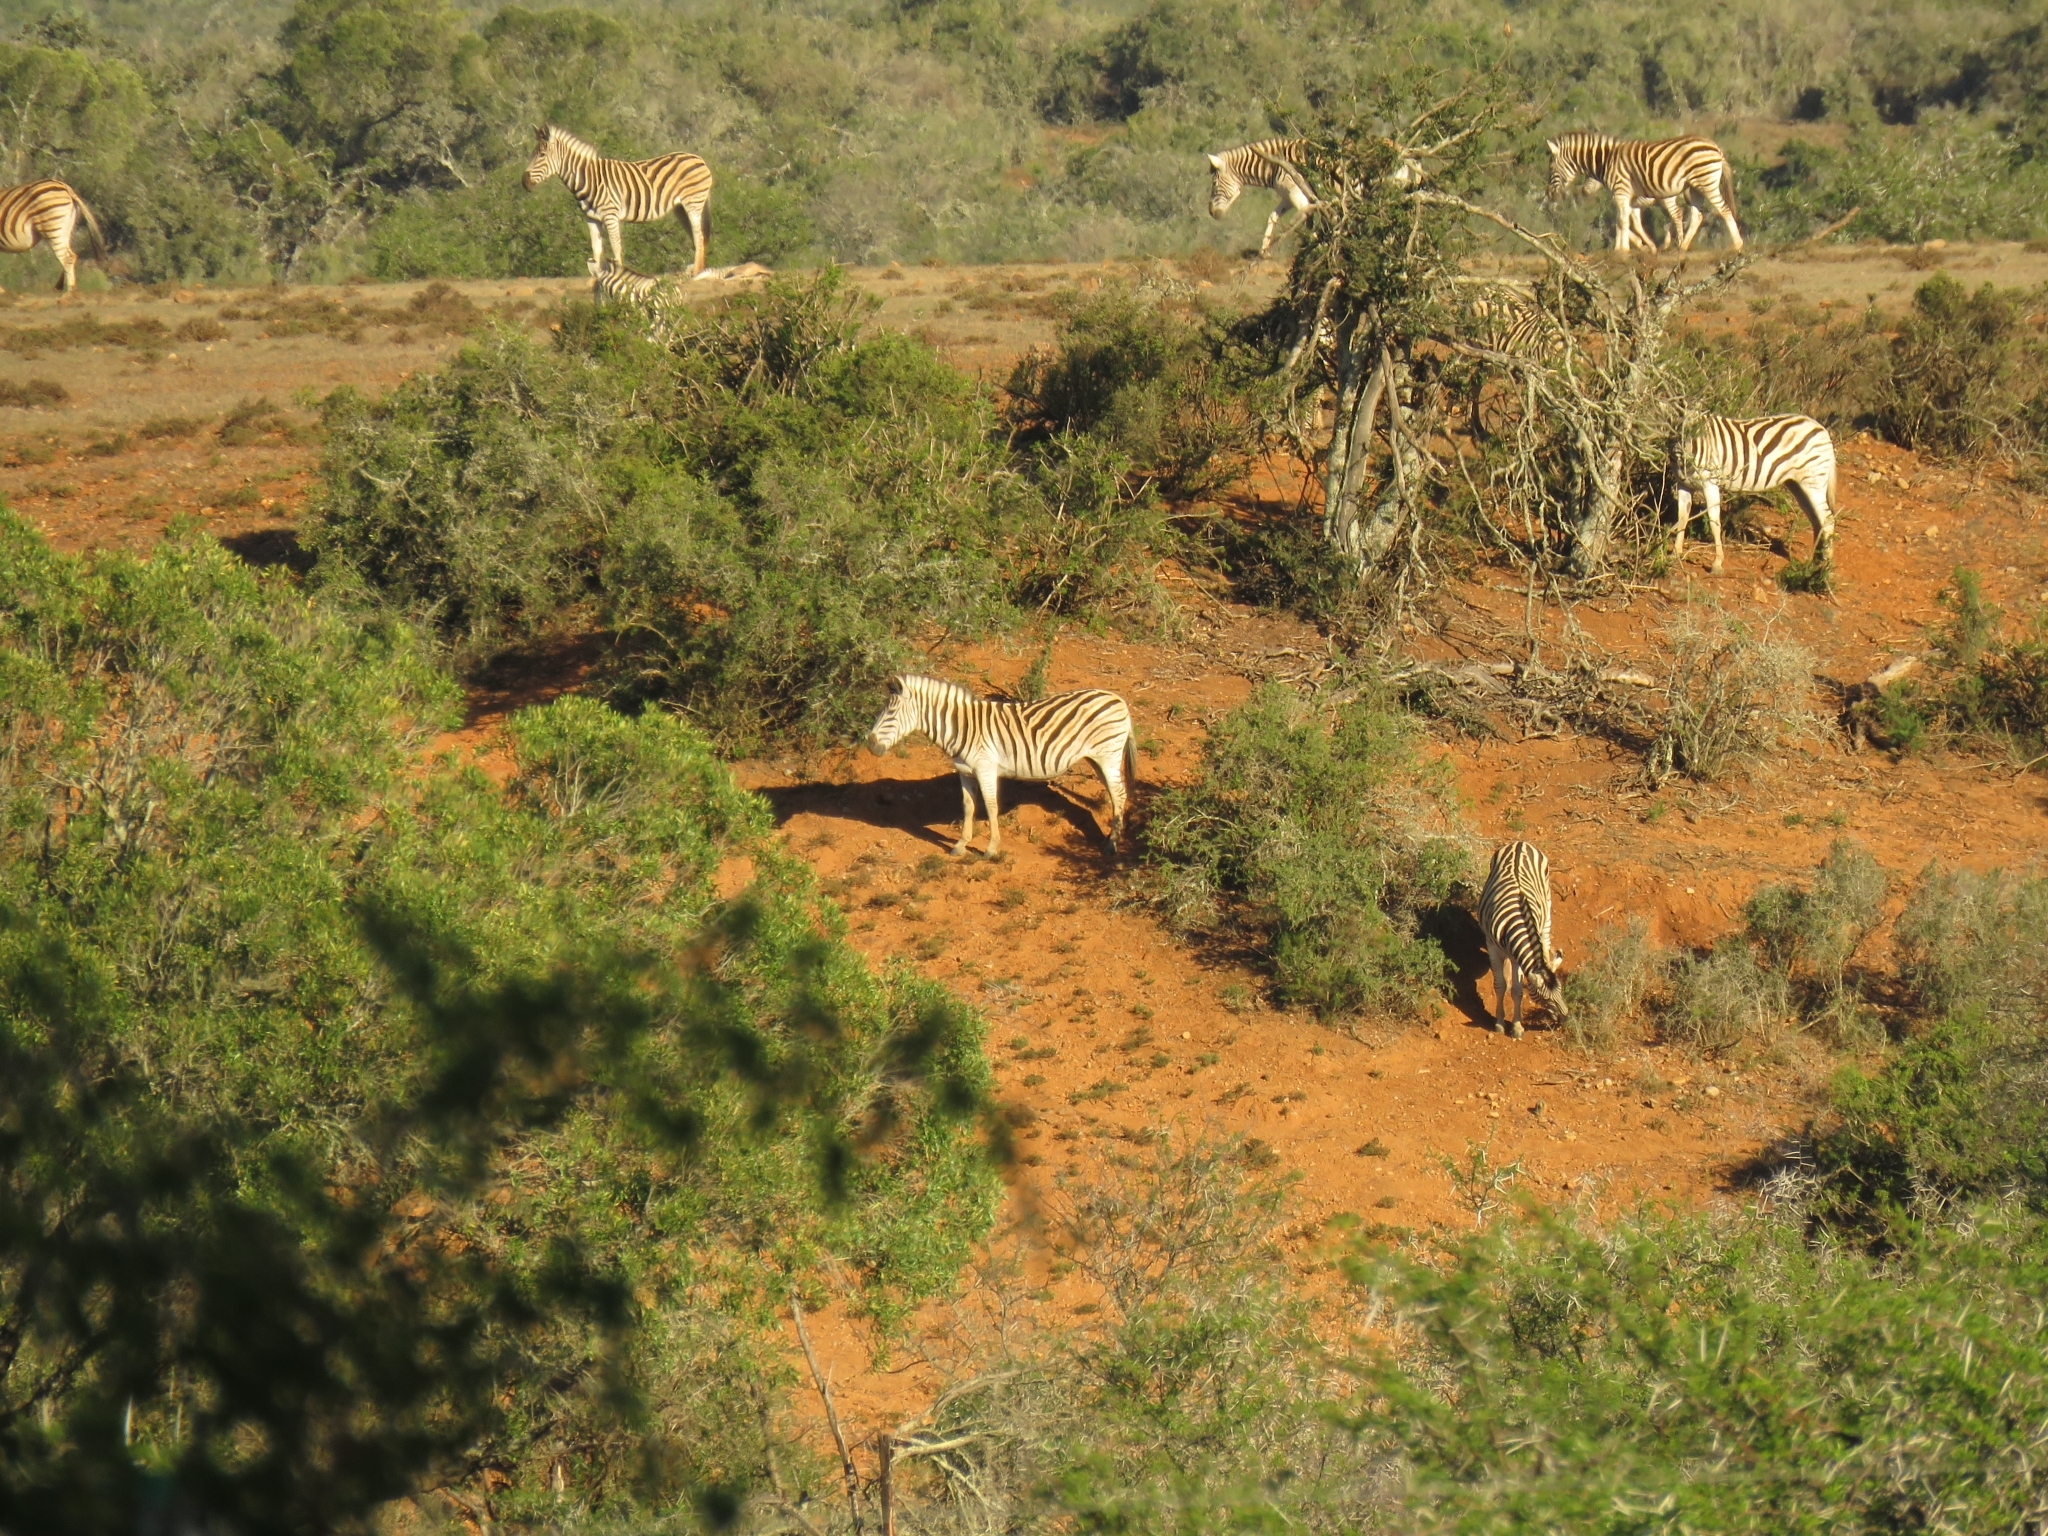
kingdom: Animalia
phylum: Chordata
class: Mammalia
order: Perissodactyla
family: Equidae
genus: Equus
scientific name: Equus quagga
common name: Plains zebra
